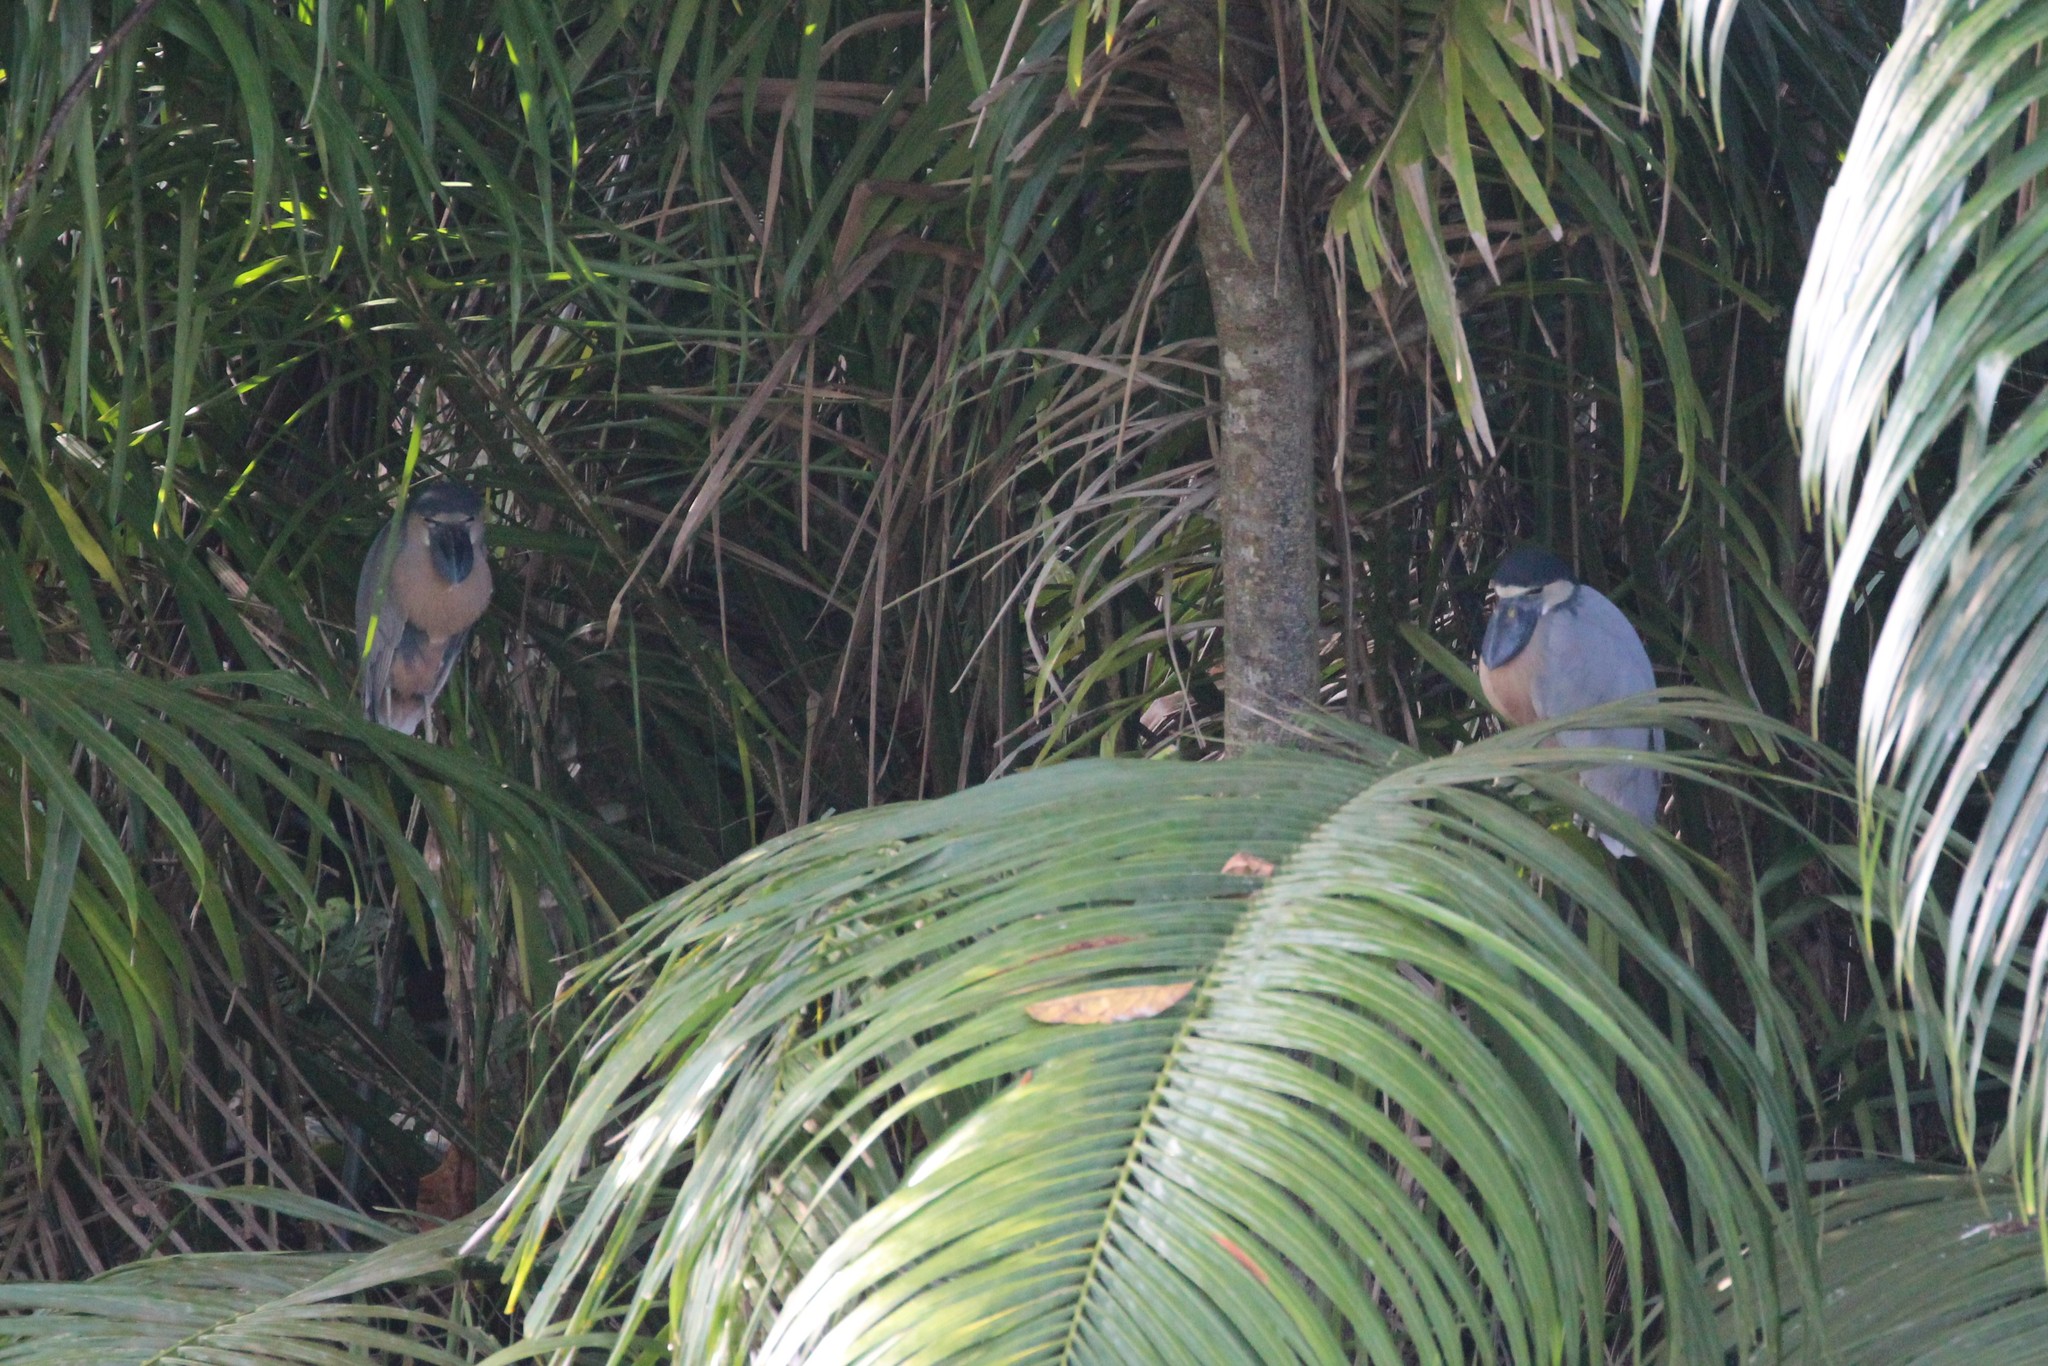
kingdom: Animalia
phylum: Chordata
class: Aves
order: Pelecaniformes
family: Ardeidae
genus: Cochlearius
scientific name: Cochlearius cochlearius
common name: Boat-billed heron
